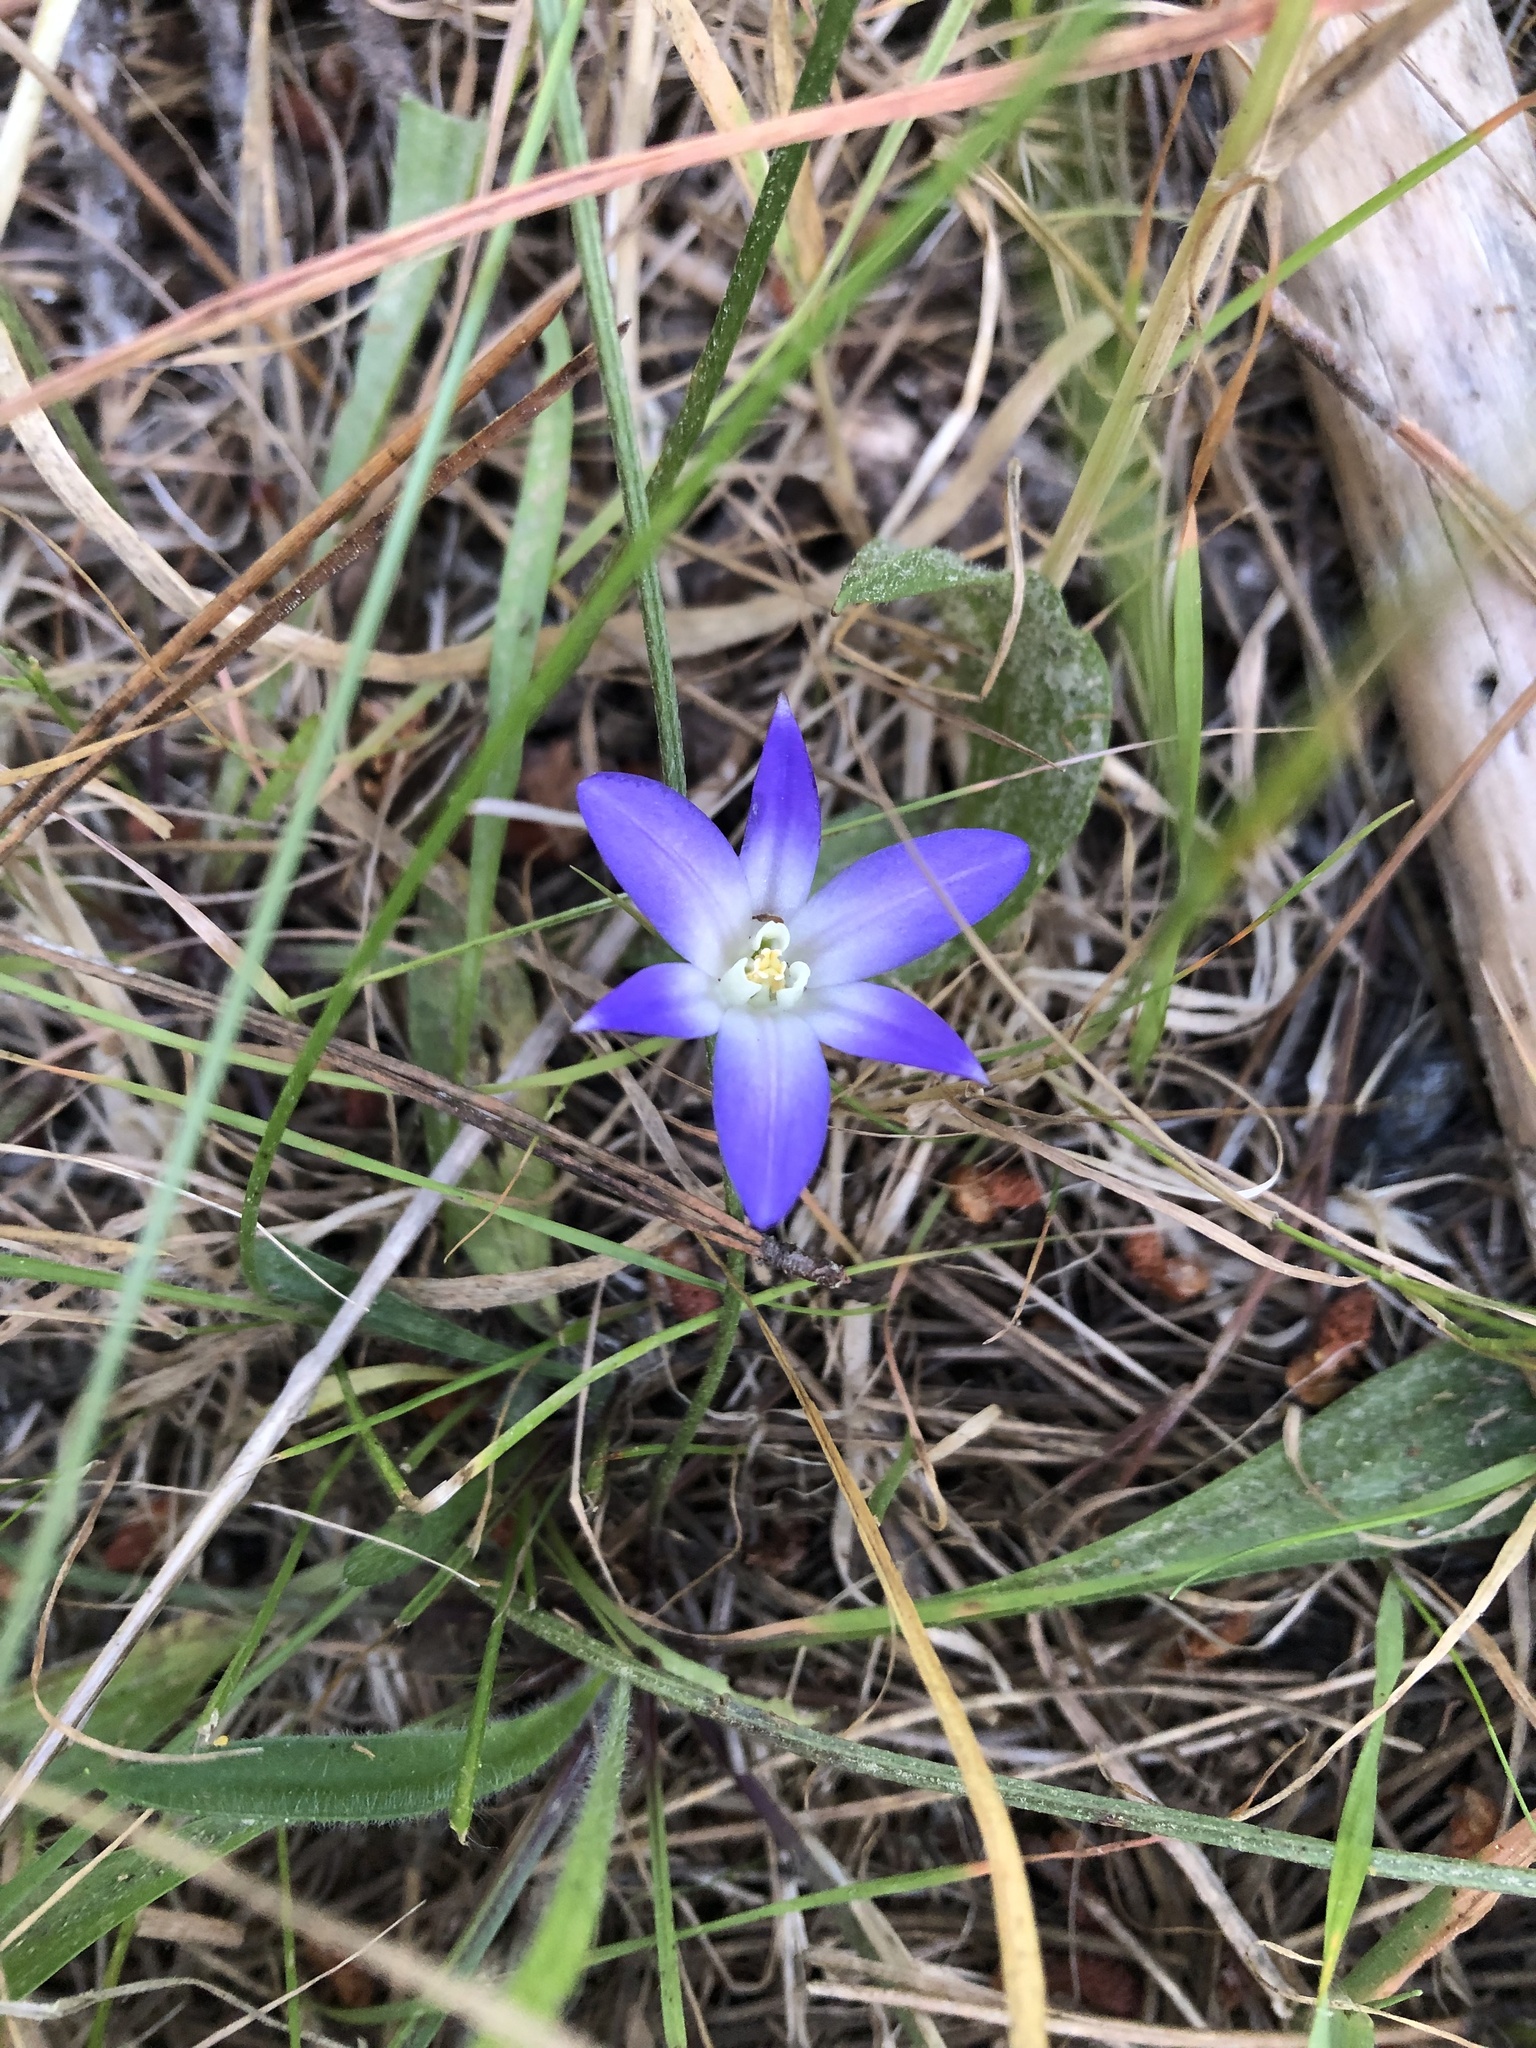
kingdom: Plantae
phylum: Tracheophyta
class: Liliopsida
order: Asparagales
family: Asparagaceae
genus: Brodiaea
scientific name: Brodiaea terrestris
